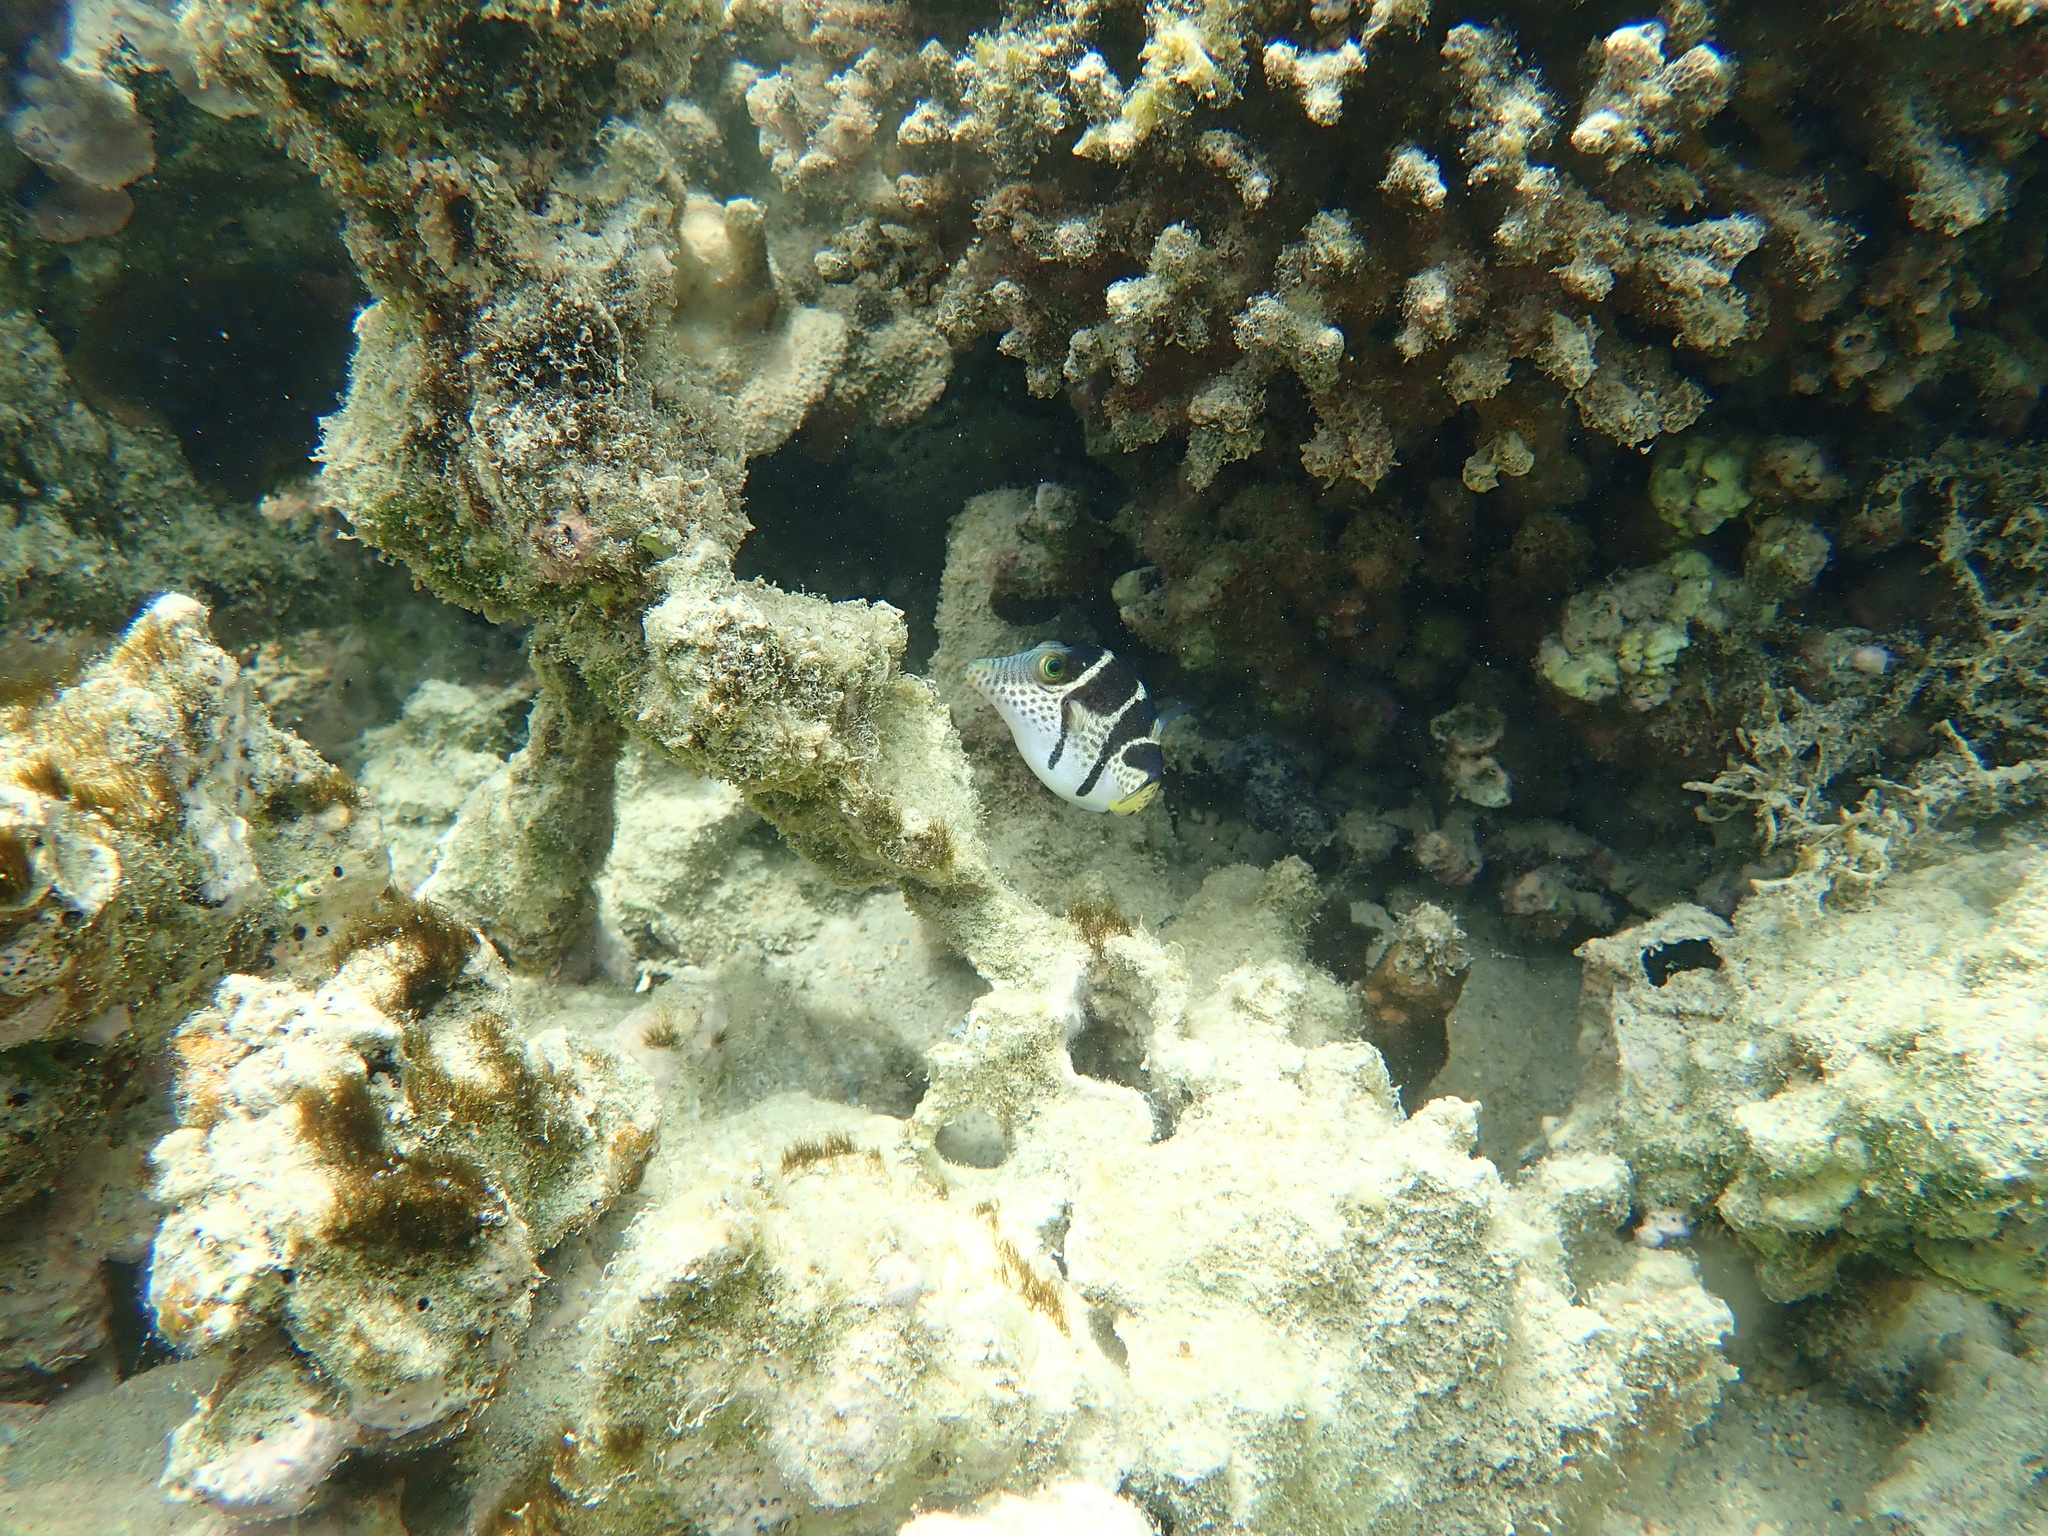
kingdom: Animalia
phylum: Chordata
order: Tetraodontiformes
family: Tetraodontidae
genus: Canthigaster
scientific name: Canthigaster valentini
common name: Banded toby
